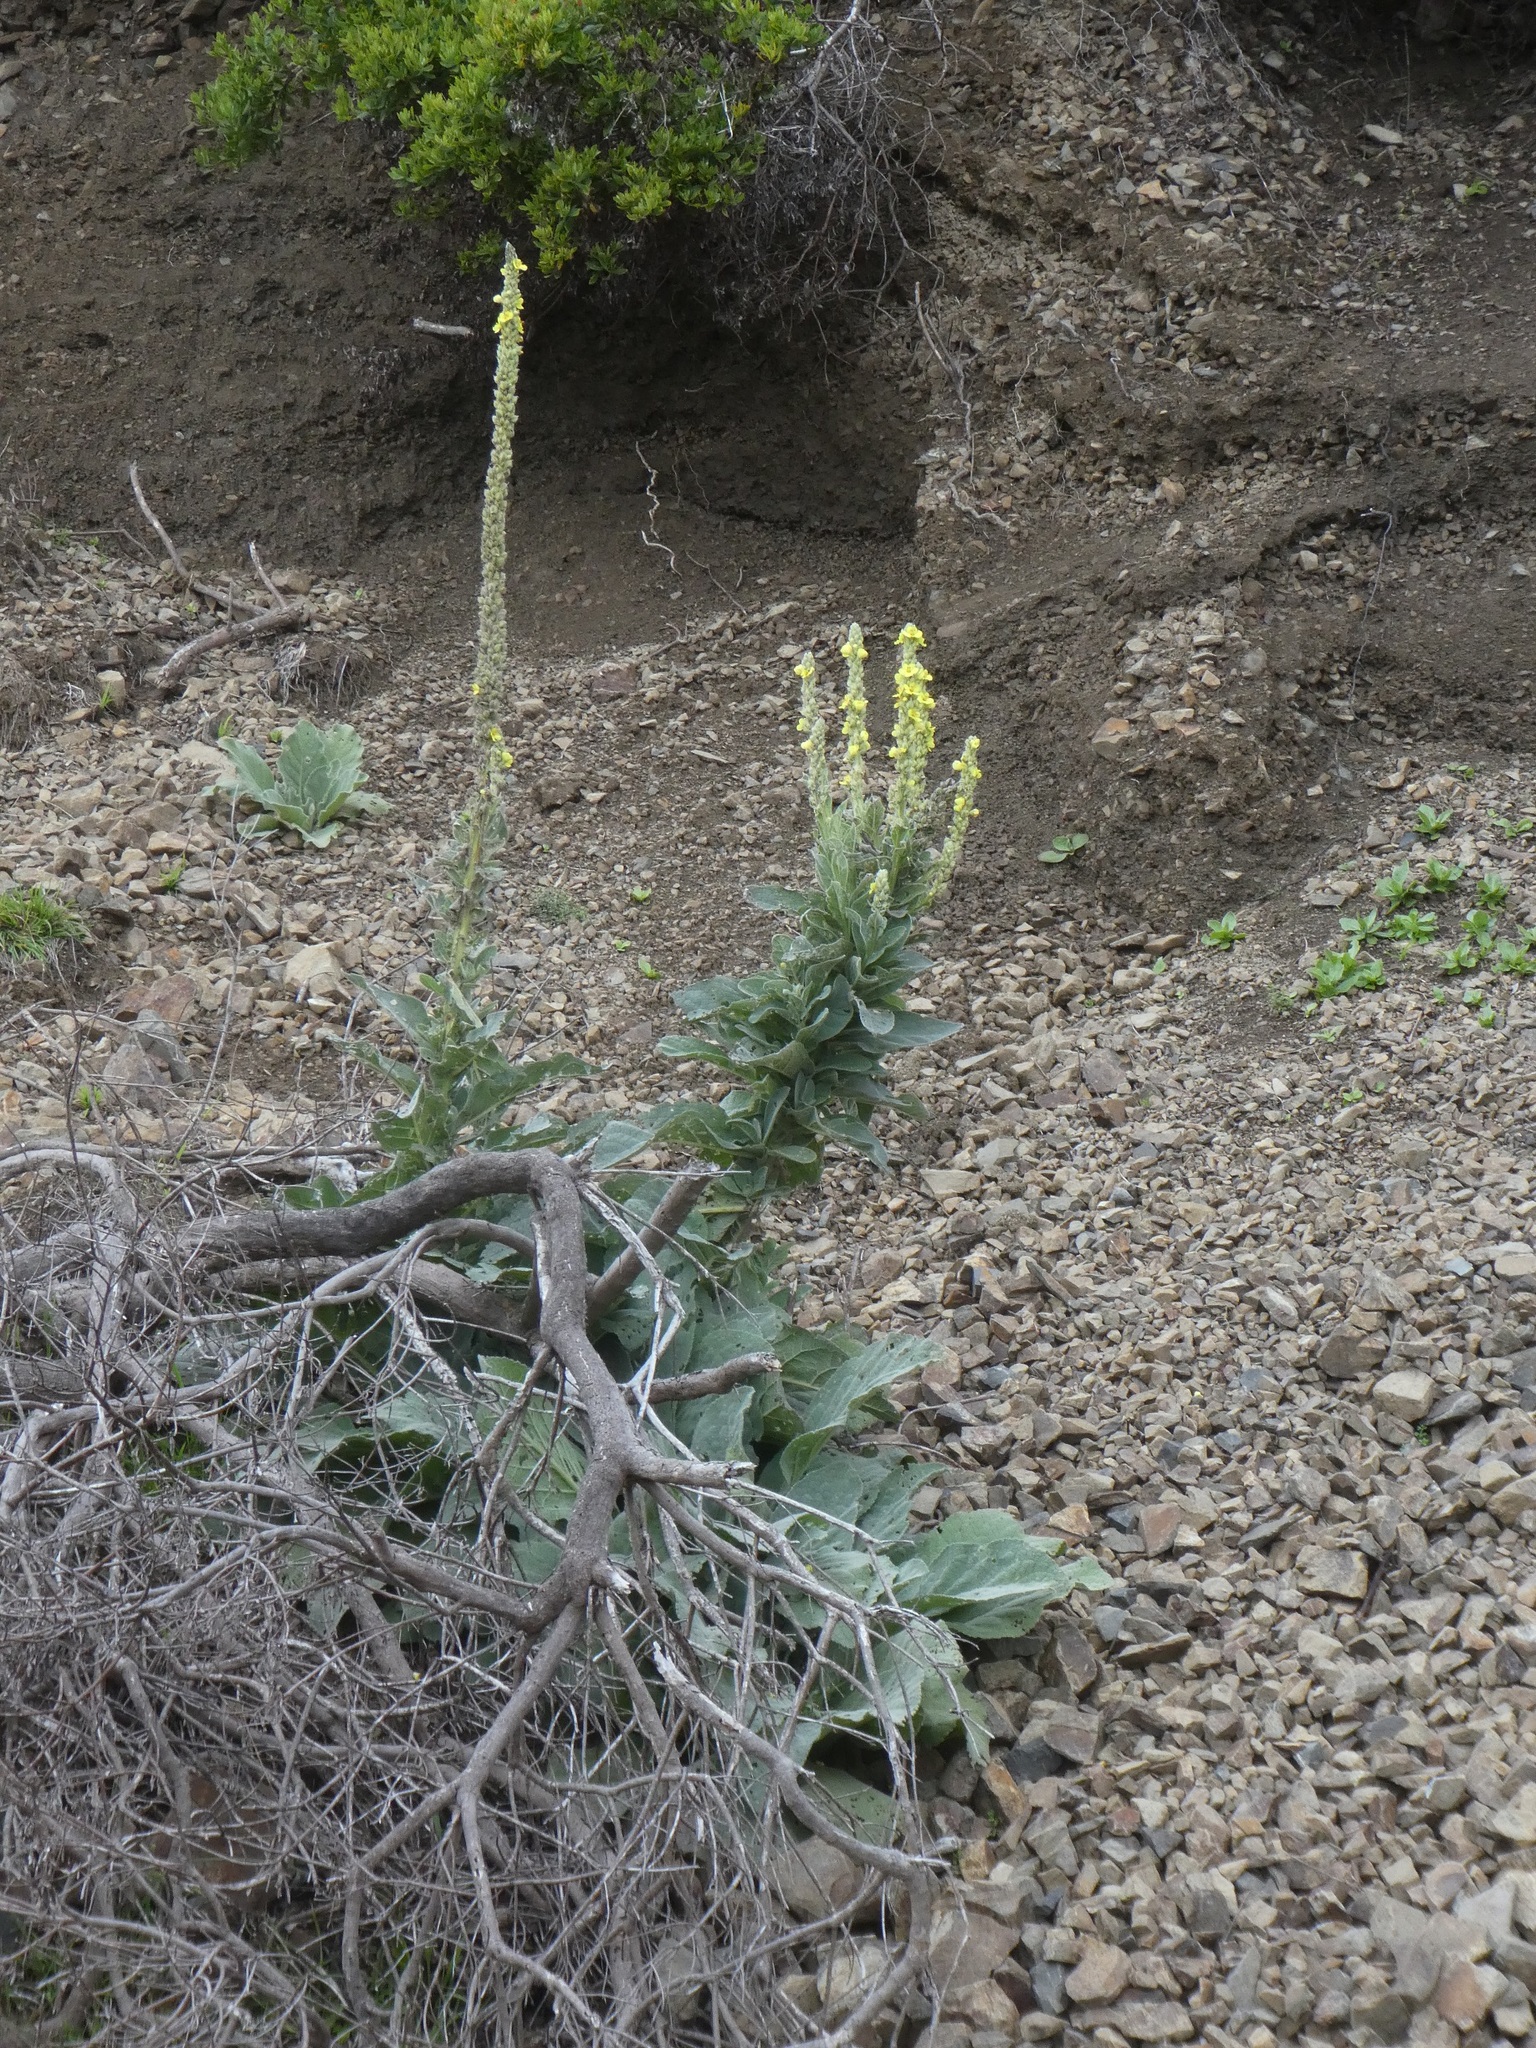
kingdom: Plantae
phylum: Tracheophyta
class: Magnoliopsida
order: Lamiales
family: Scrophulariaceae
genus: Verbascum
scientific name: Verbascum thapsus
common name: Common mullein
